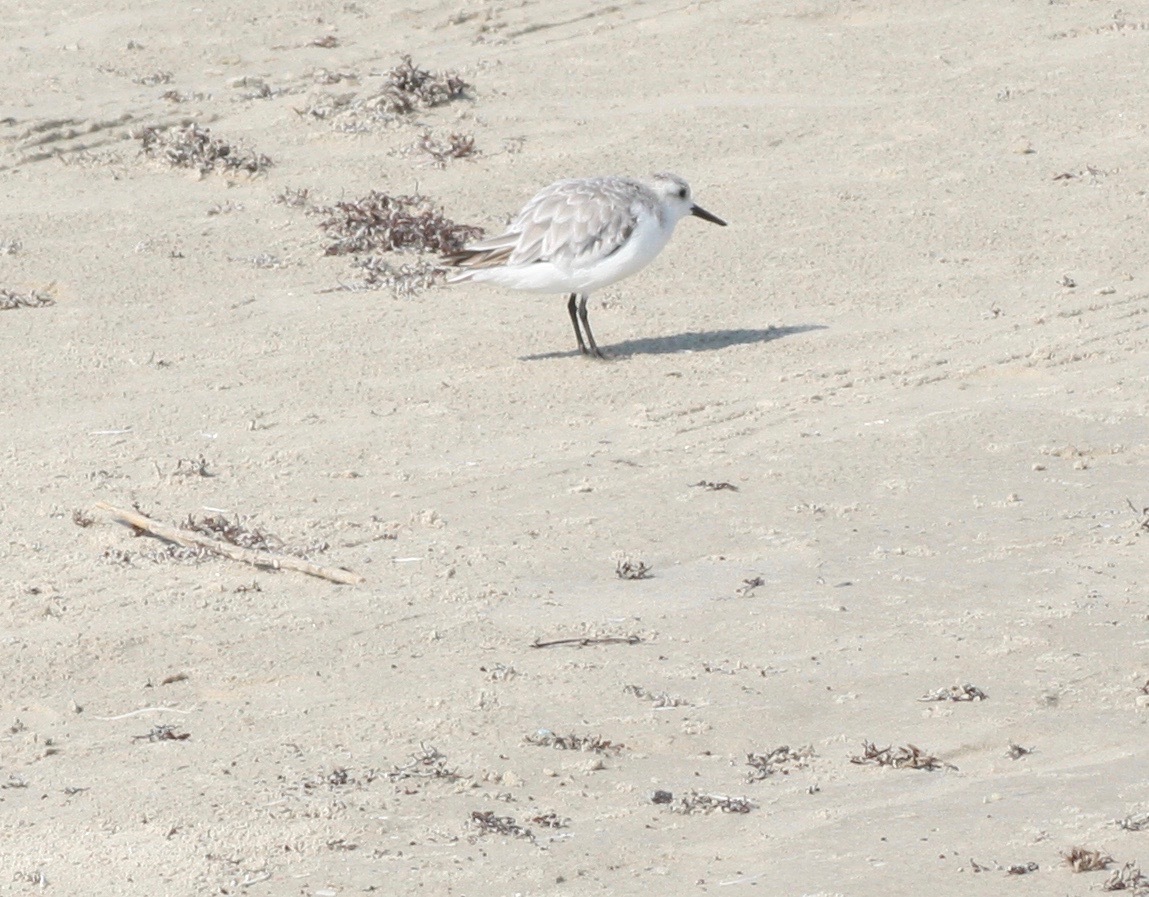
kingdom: Animalia
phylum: Chordata
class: Aves
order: Charadriiformes
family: Scolopacidae
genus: Calidris
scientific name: Calidris alba
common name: Sanderling
